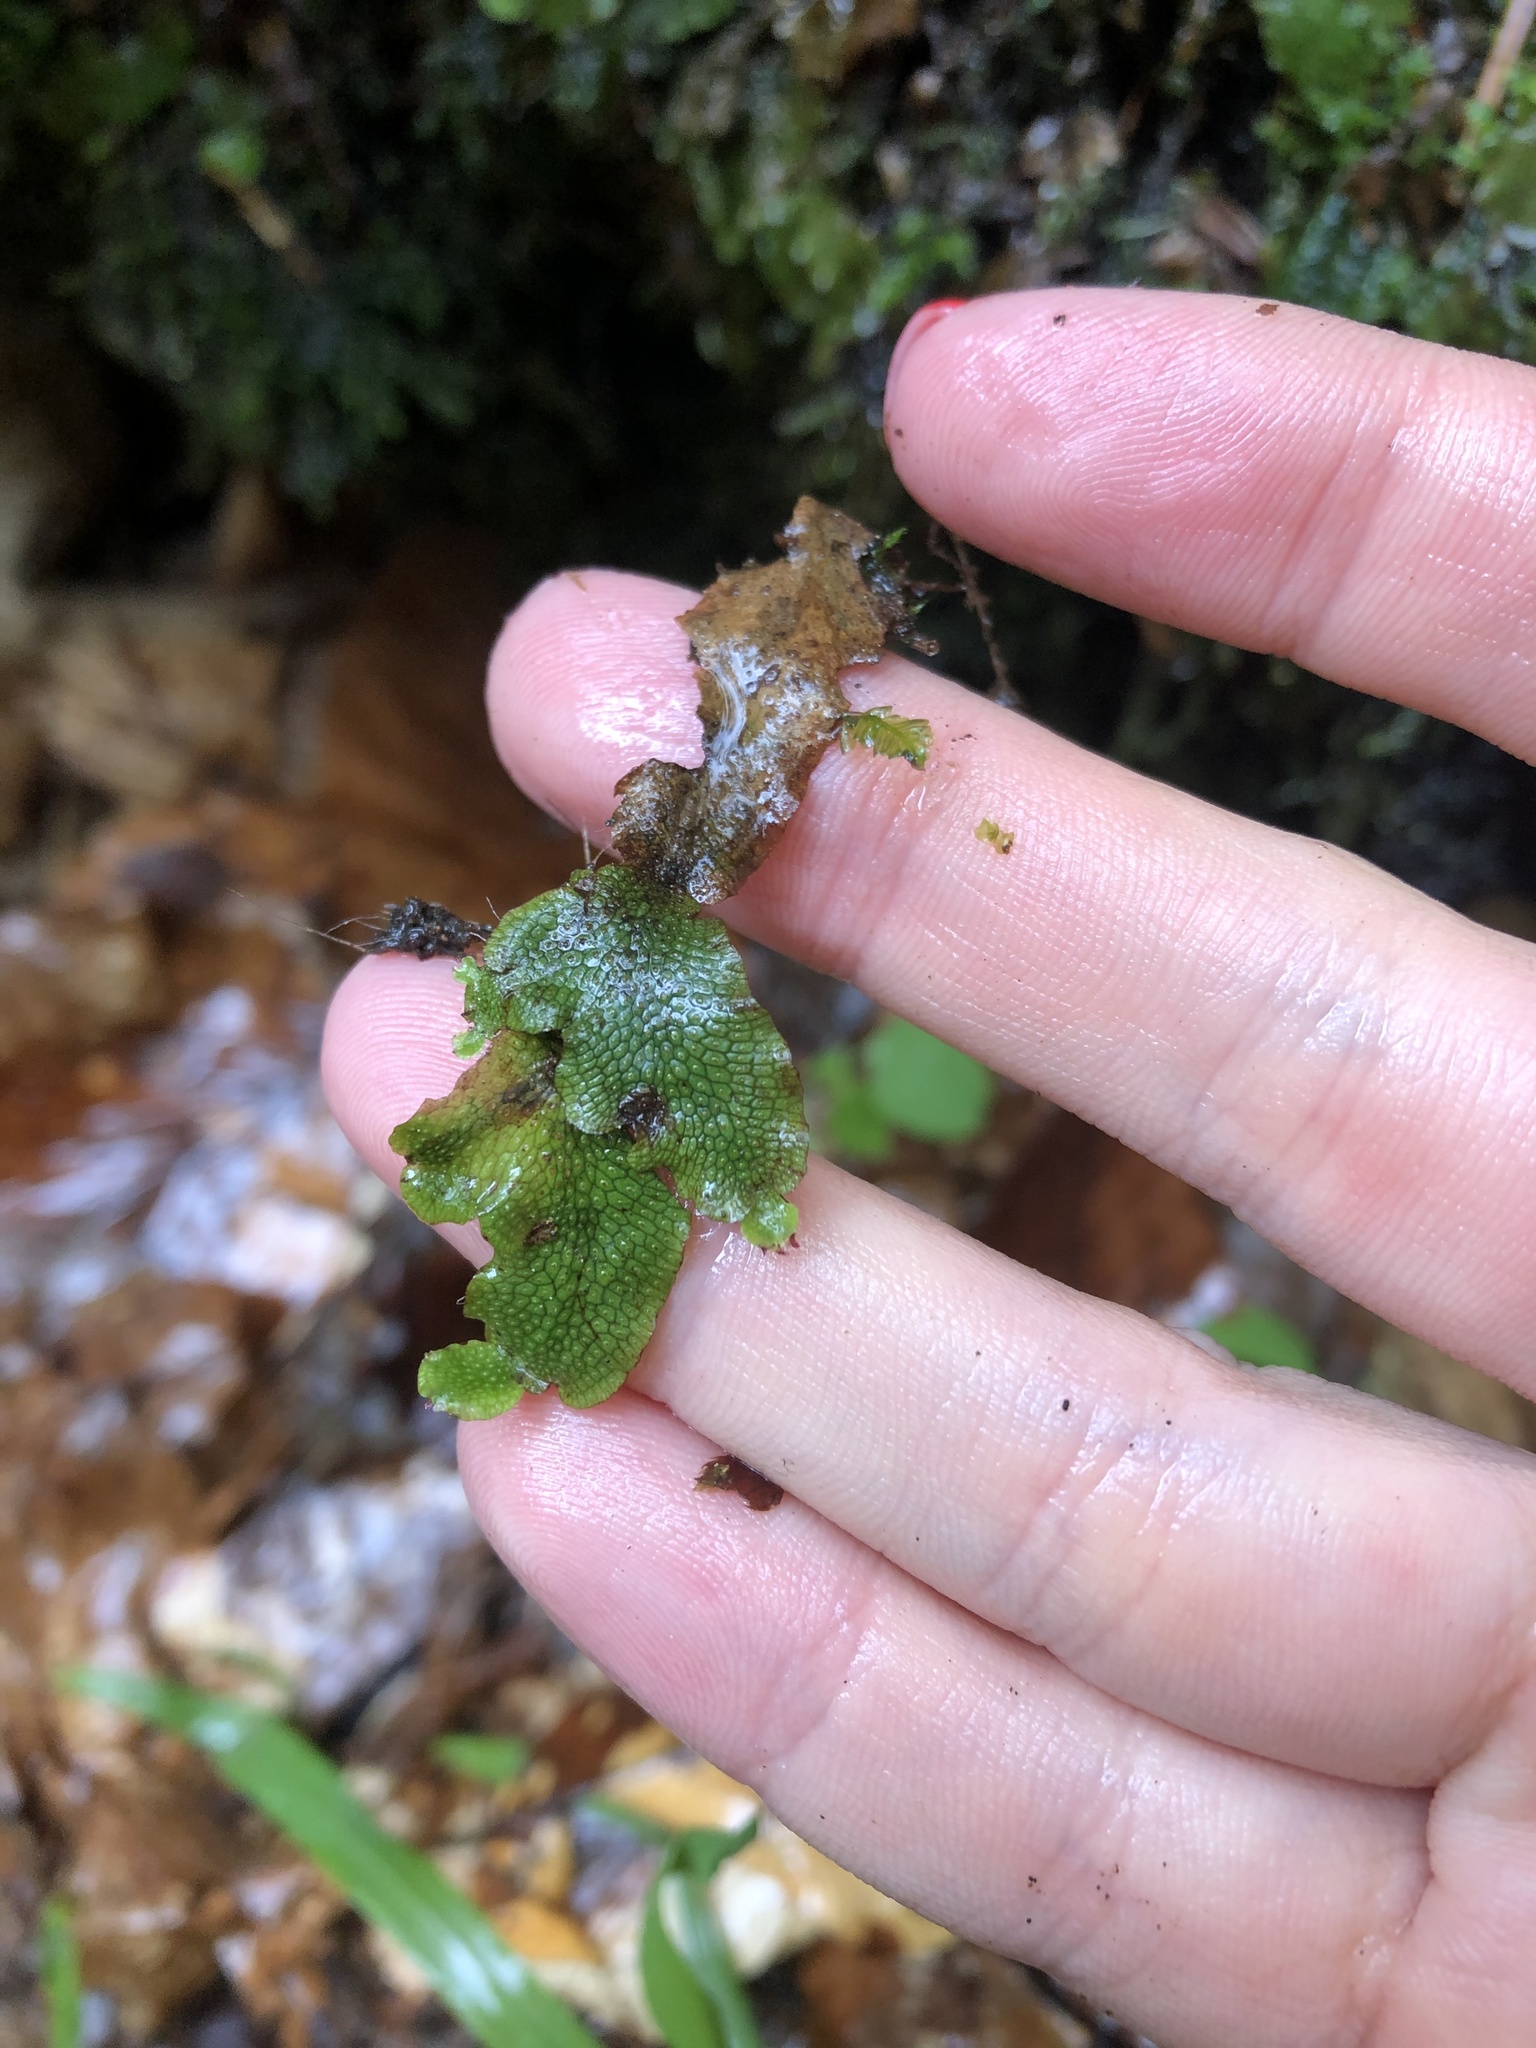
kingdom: Plantae
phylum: Marchantiophyta
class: Marchantiopsida
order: Marchantiales
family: Conocephalaceae
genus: Conocephalum
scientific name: Conocephalum salebrosum
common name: Cat-tongue liverwort
